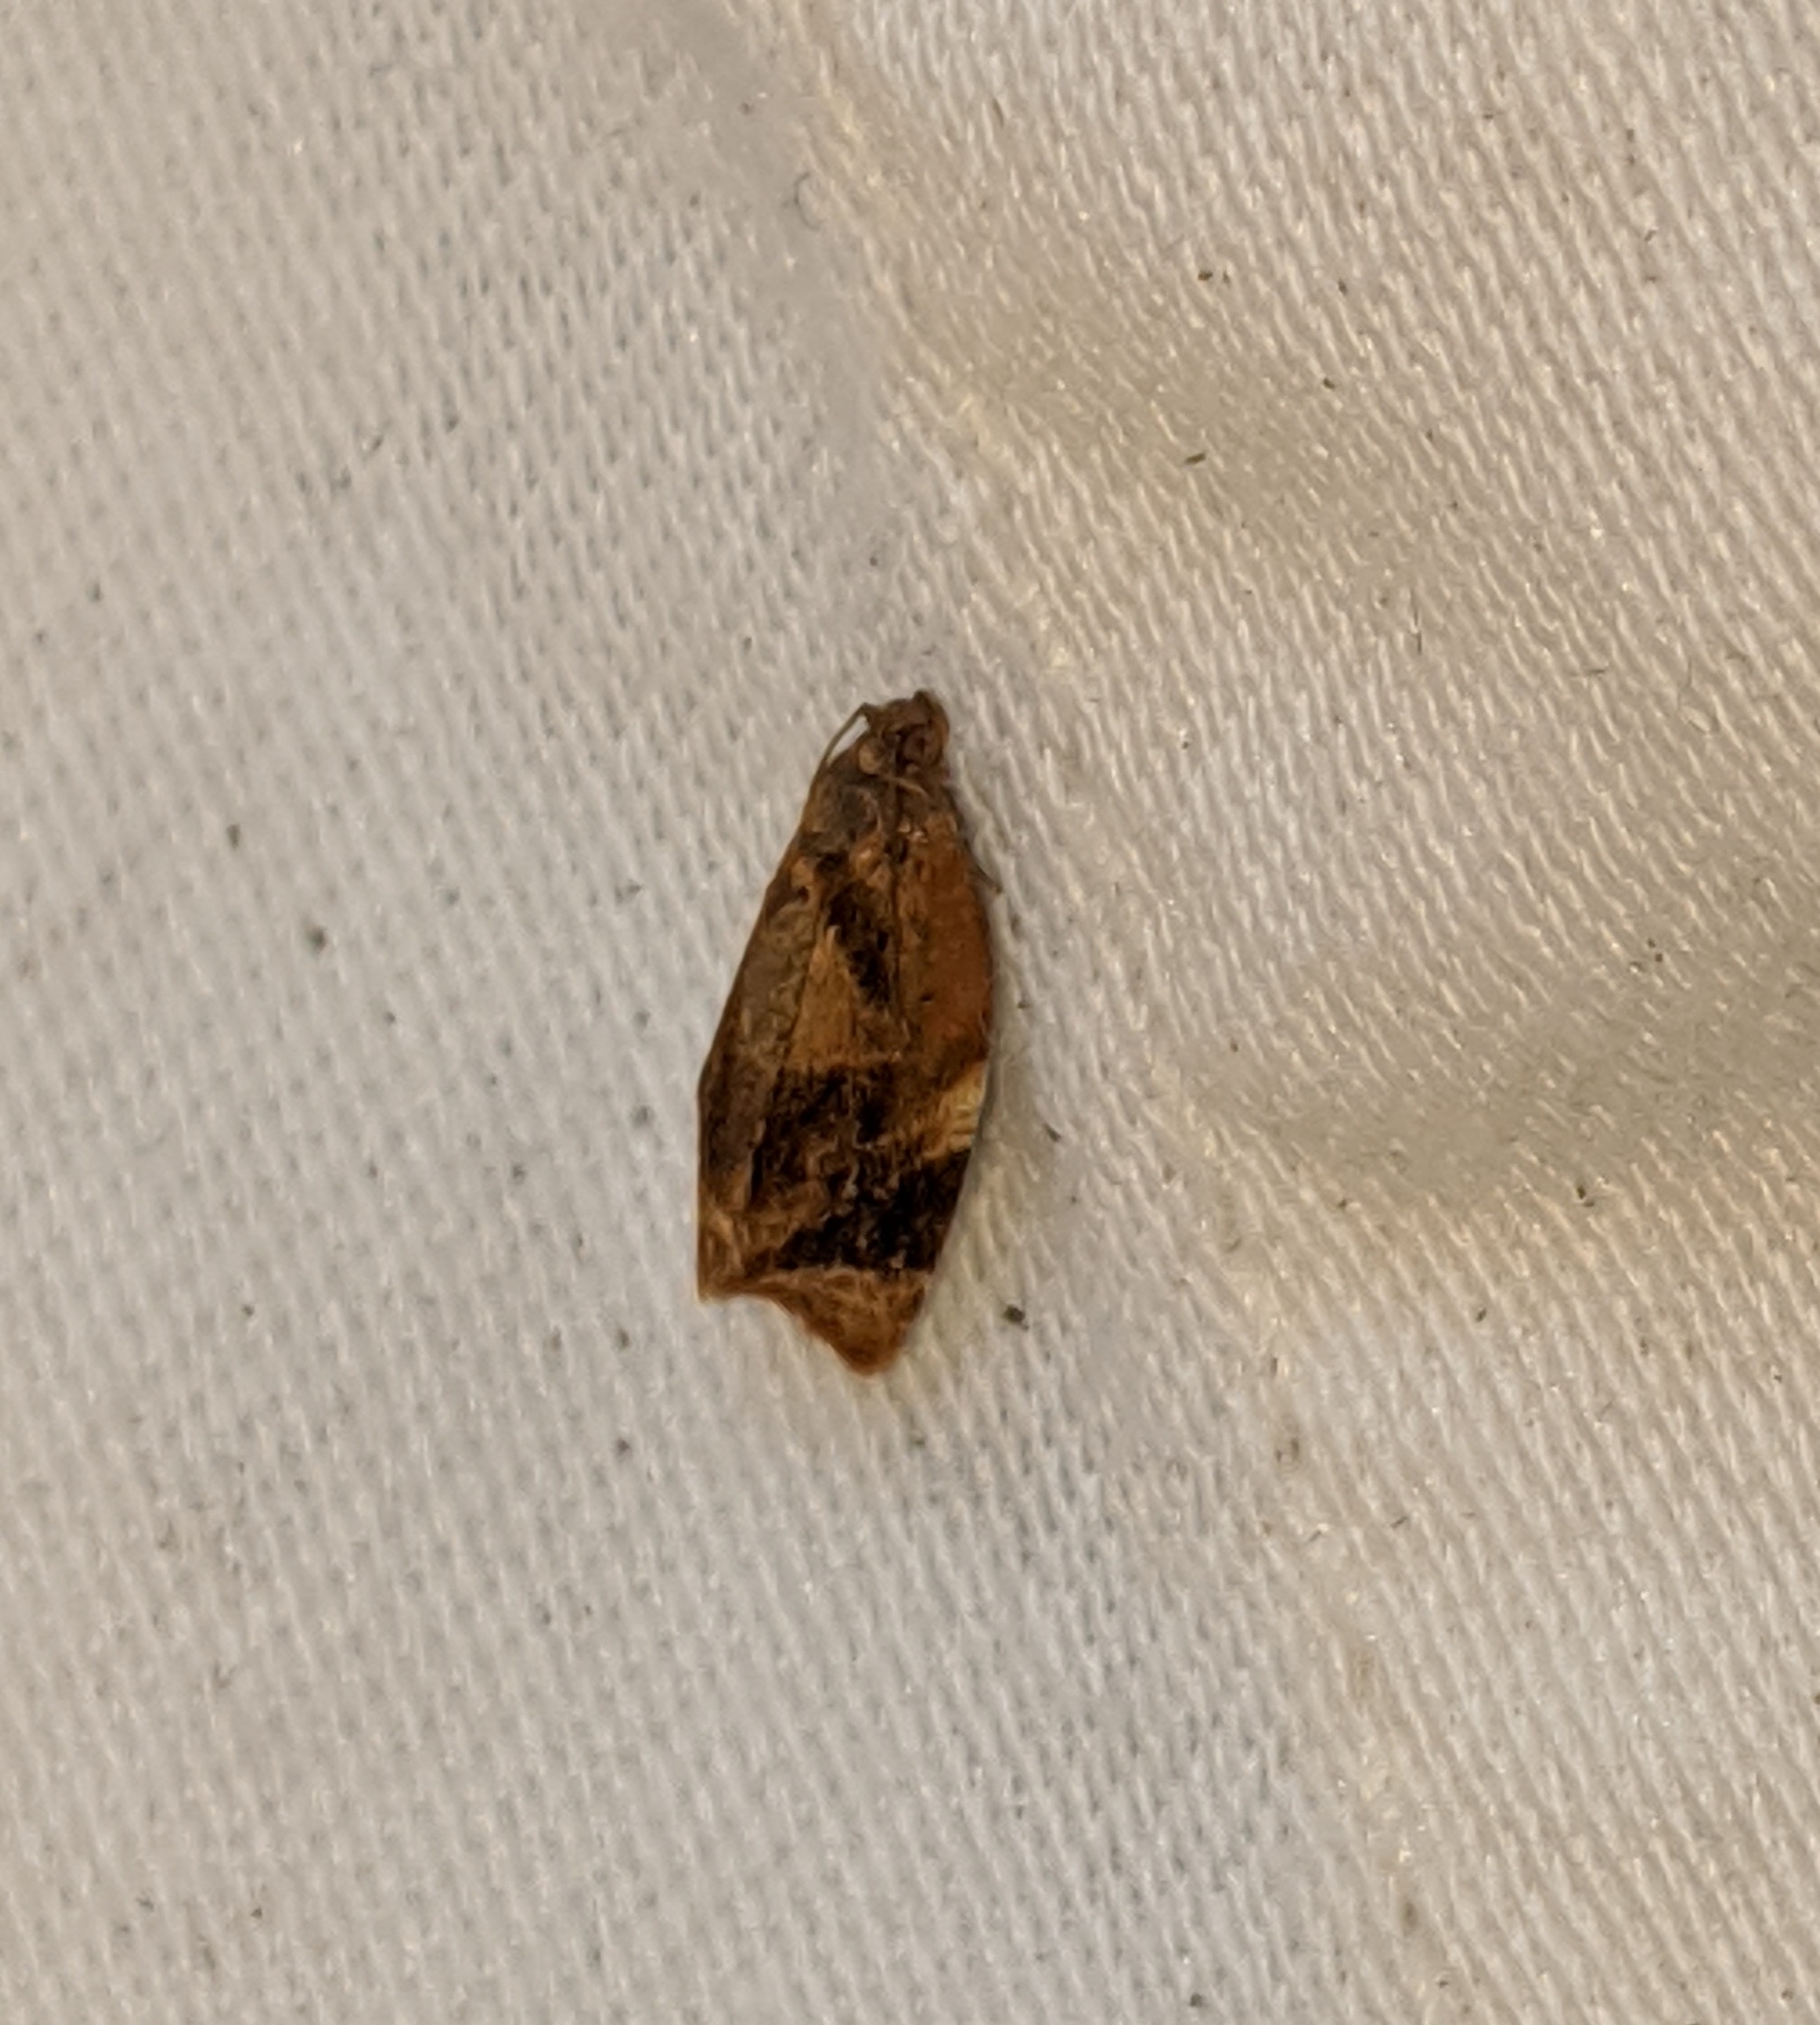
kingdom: Animalia
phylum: Arthropoda
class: Insecta
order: Lepidoptera
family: Tortricidae
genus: Ditula
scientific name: Ditula angustiorana
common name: Red-barred tortrix
